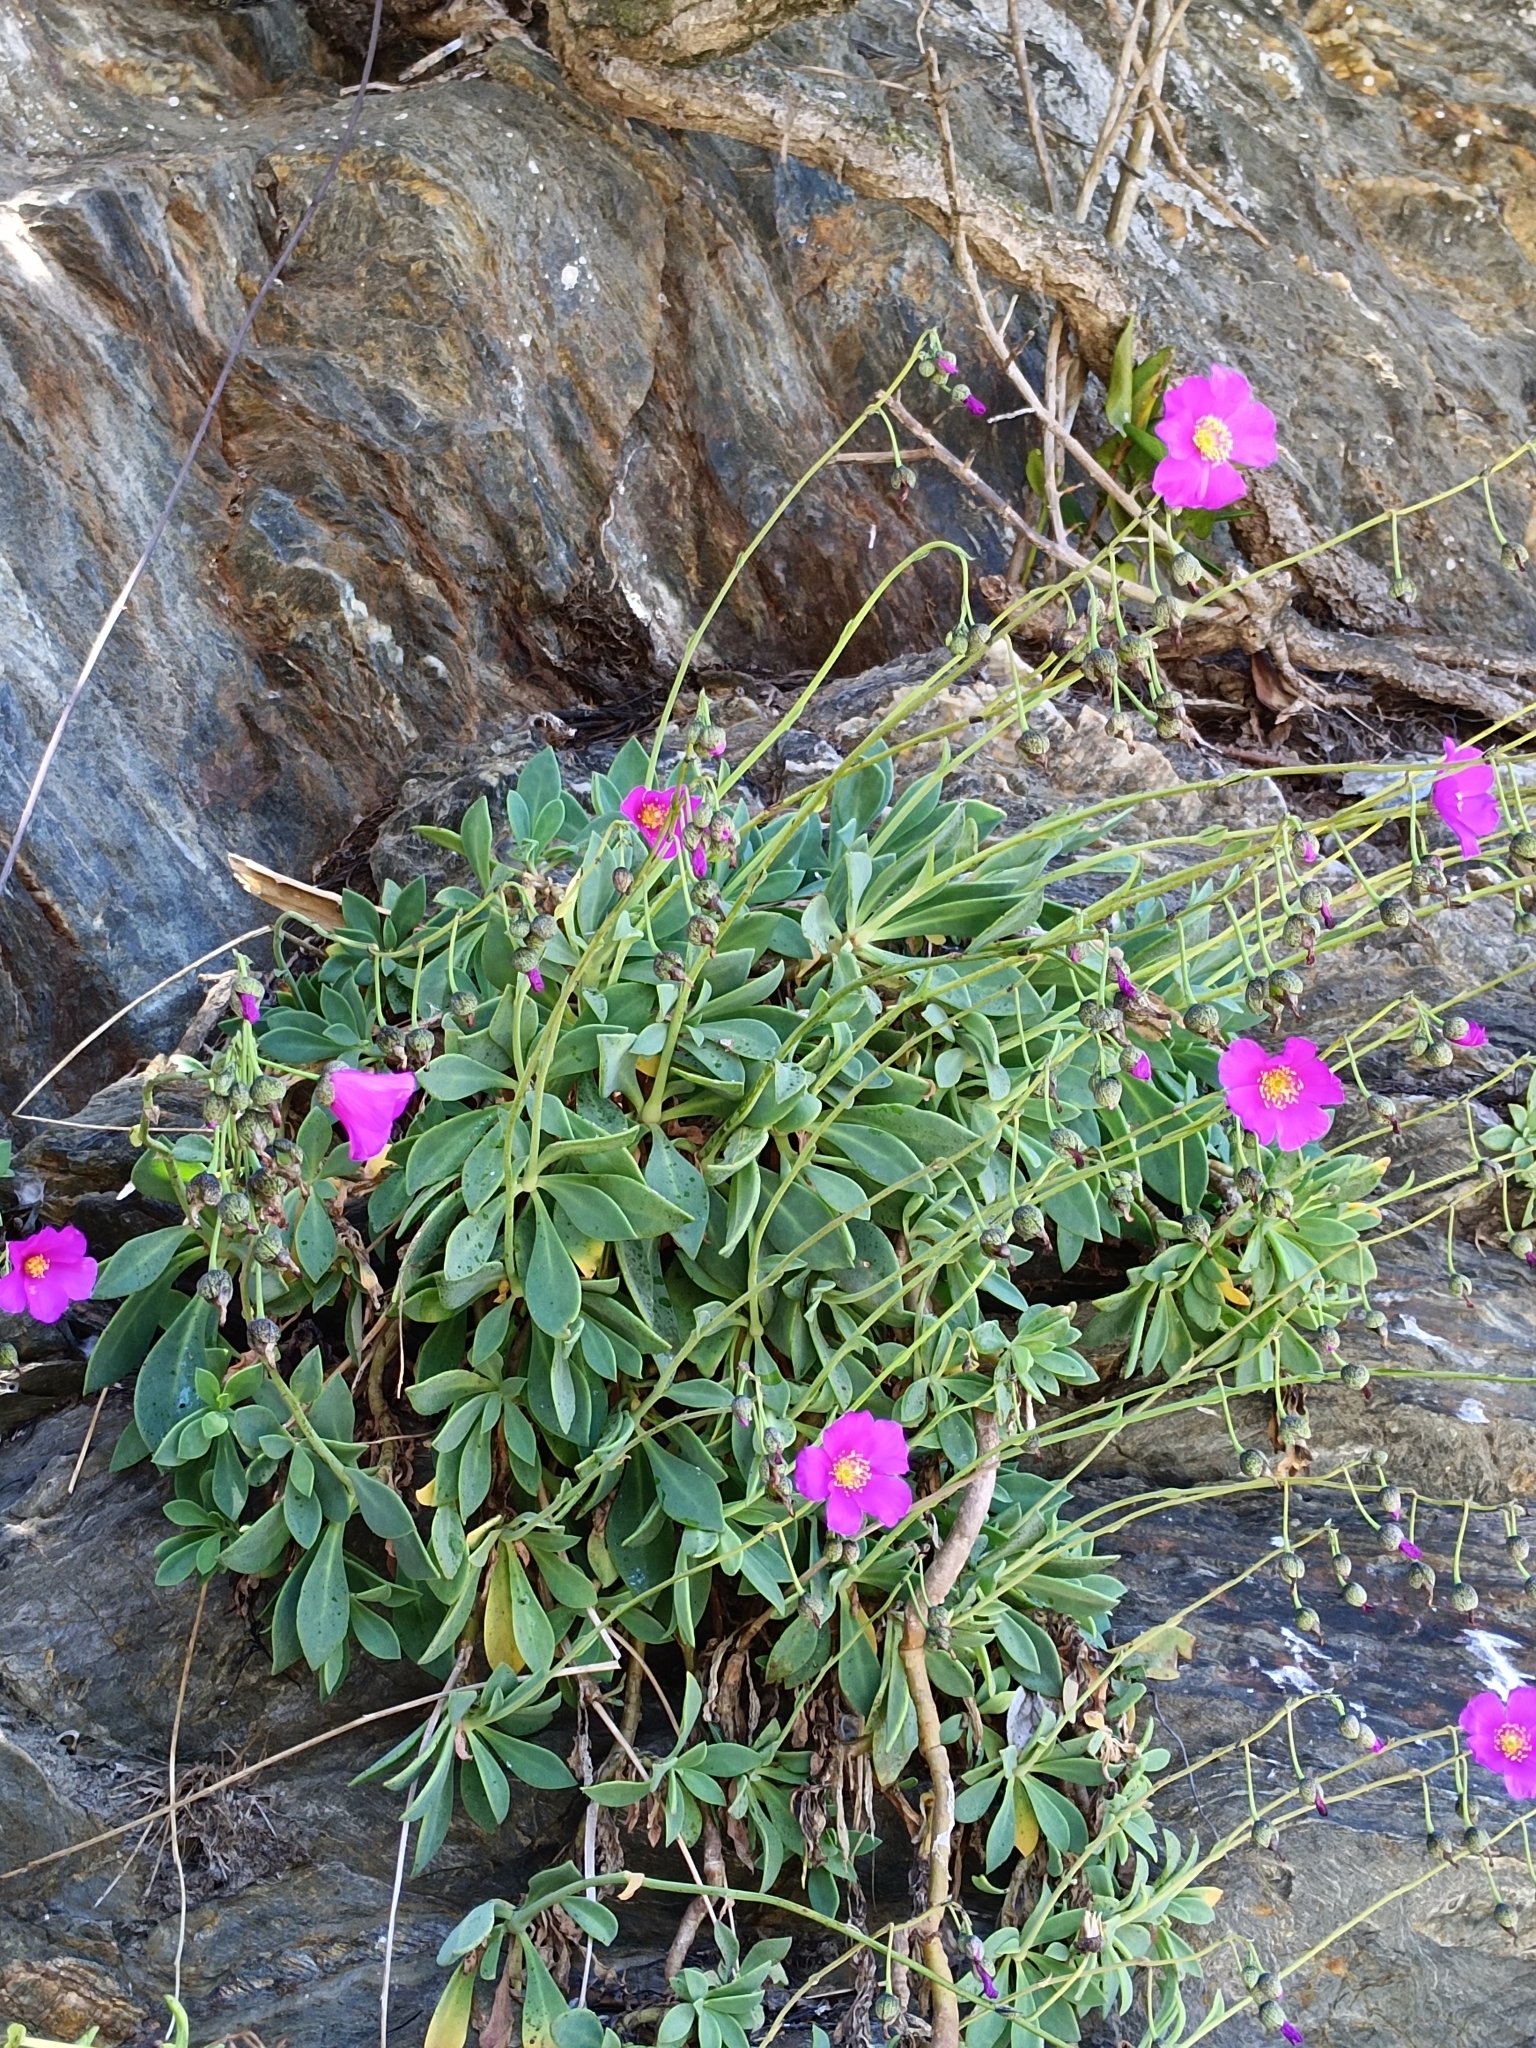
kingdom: Plantae
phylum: Tracheophyta
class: Magnoliopsida
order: Caryophyllales
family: Montiaceae
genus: Cistanthe
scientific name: Cistanthe grandiflora
